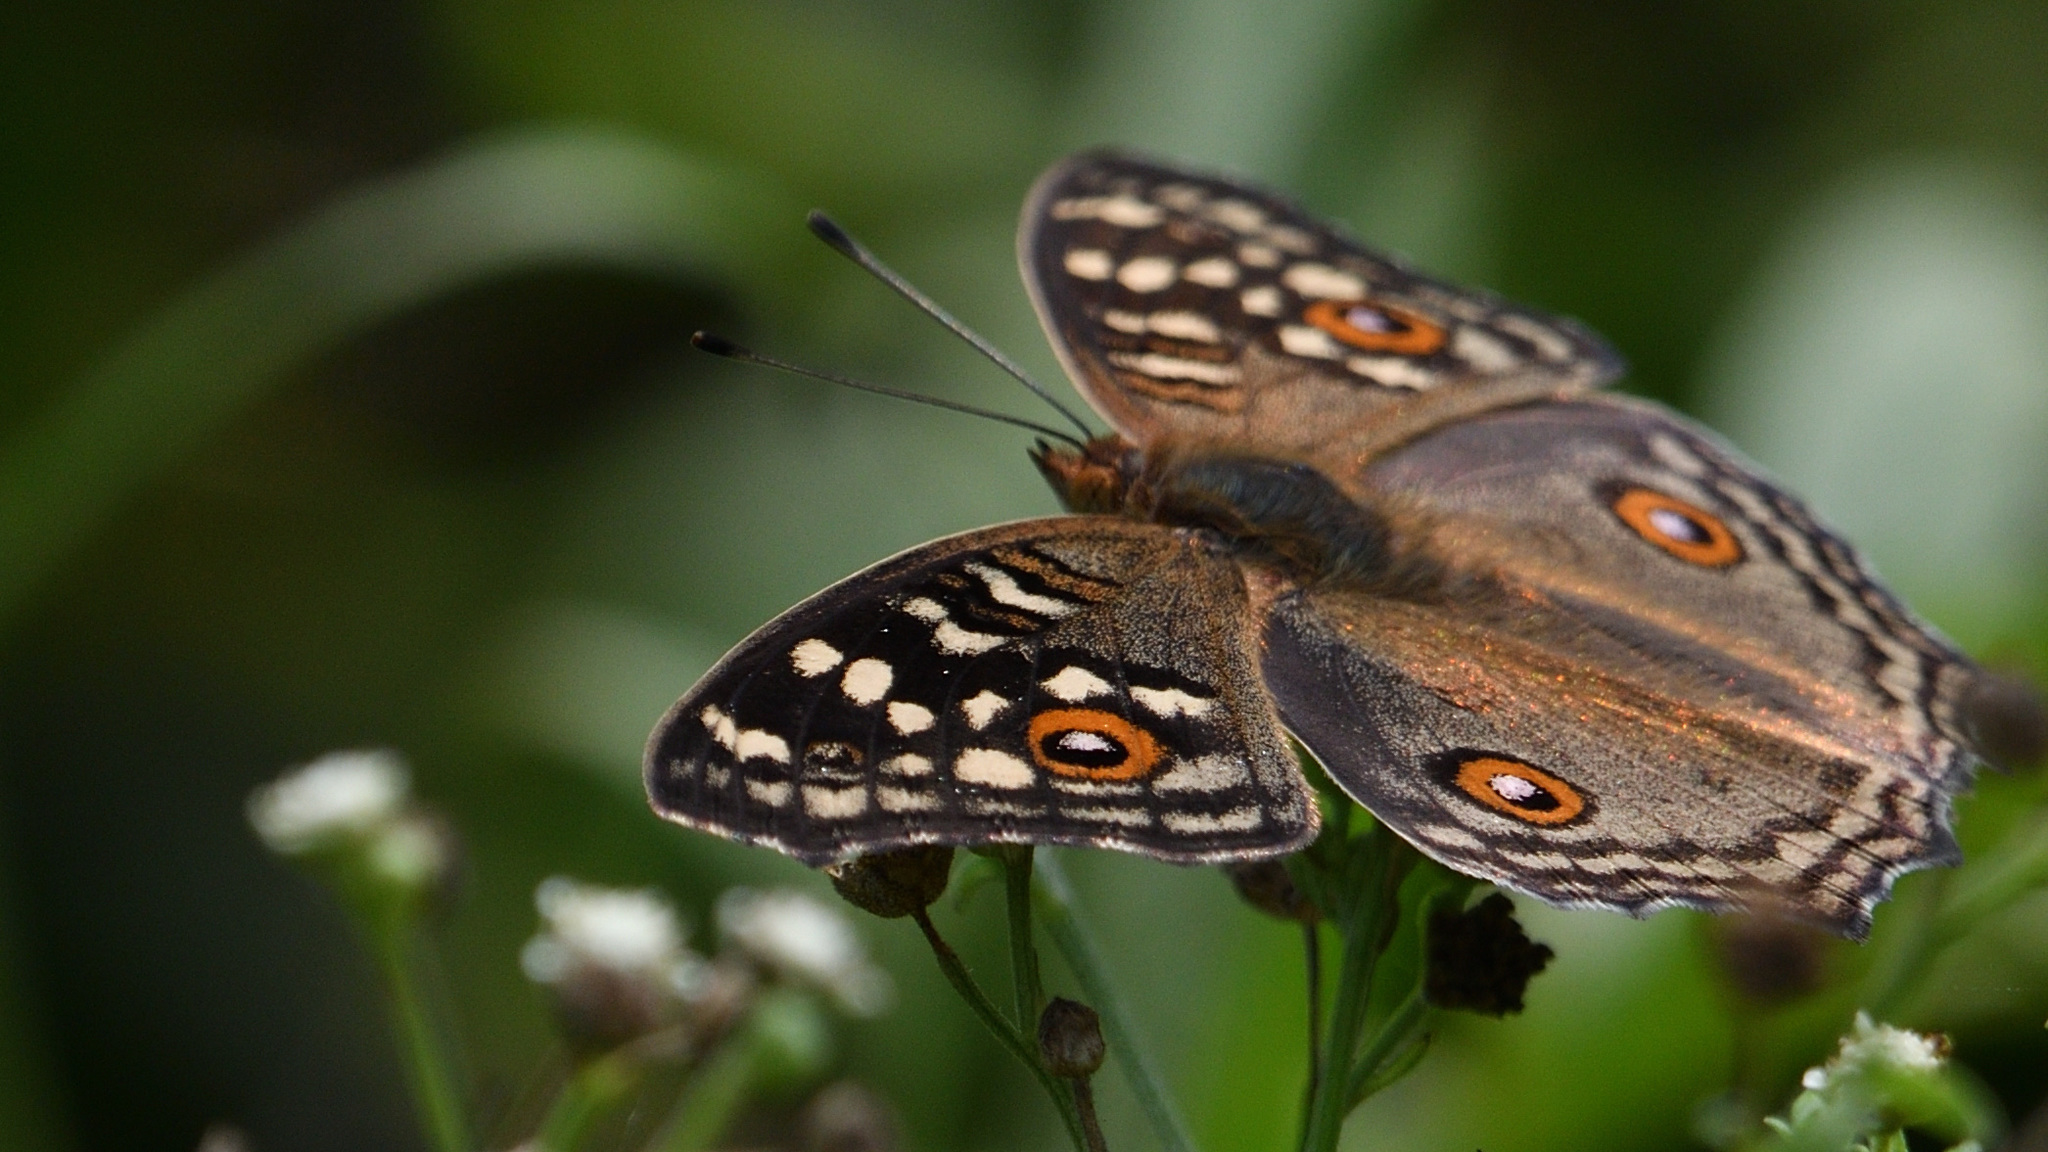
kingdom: Animalia
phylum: Arthropoda
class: Insecta
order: Lepidoptera
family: Nymphalidae
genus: Junonia
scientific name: Junonia lemonias
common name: Lemon pansy
